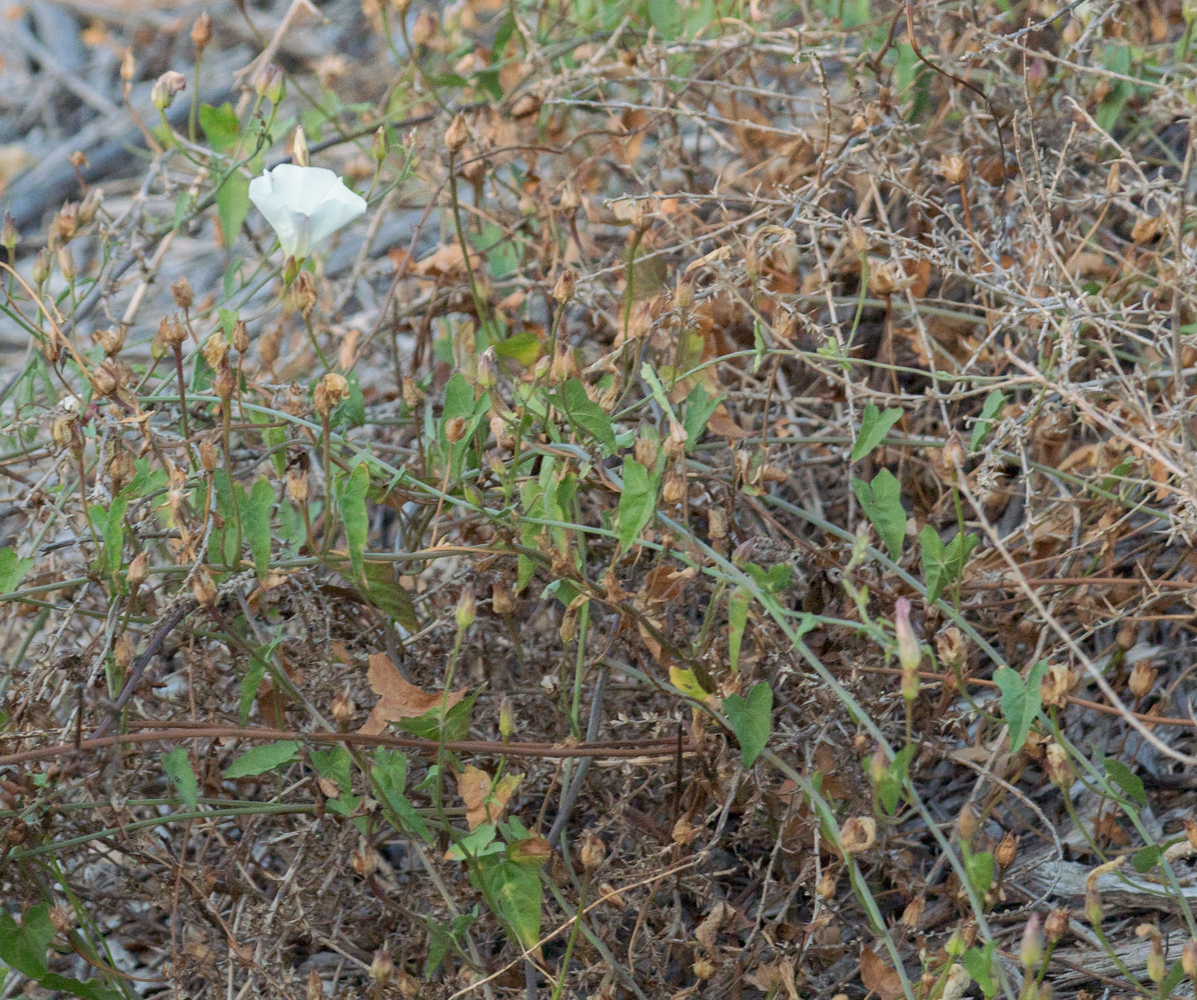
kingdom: Plantae
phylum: Tracheophyta
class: Magnoliopsida
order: Solanales
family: Convolvulaceae
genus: Calystegia
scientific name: Calystegia macrostegia
